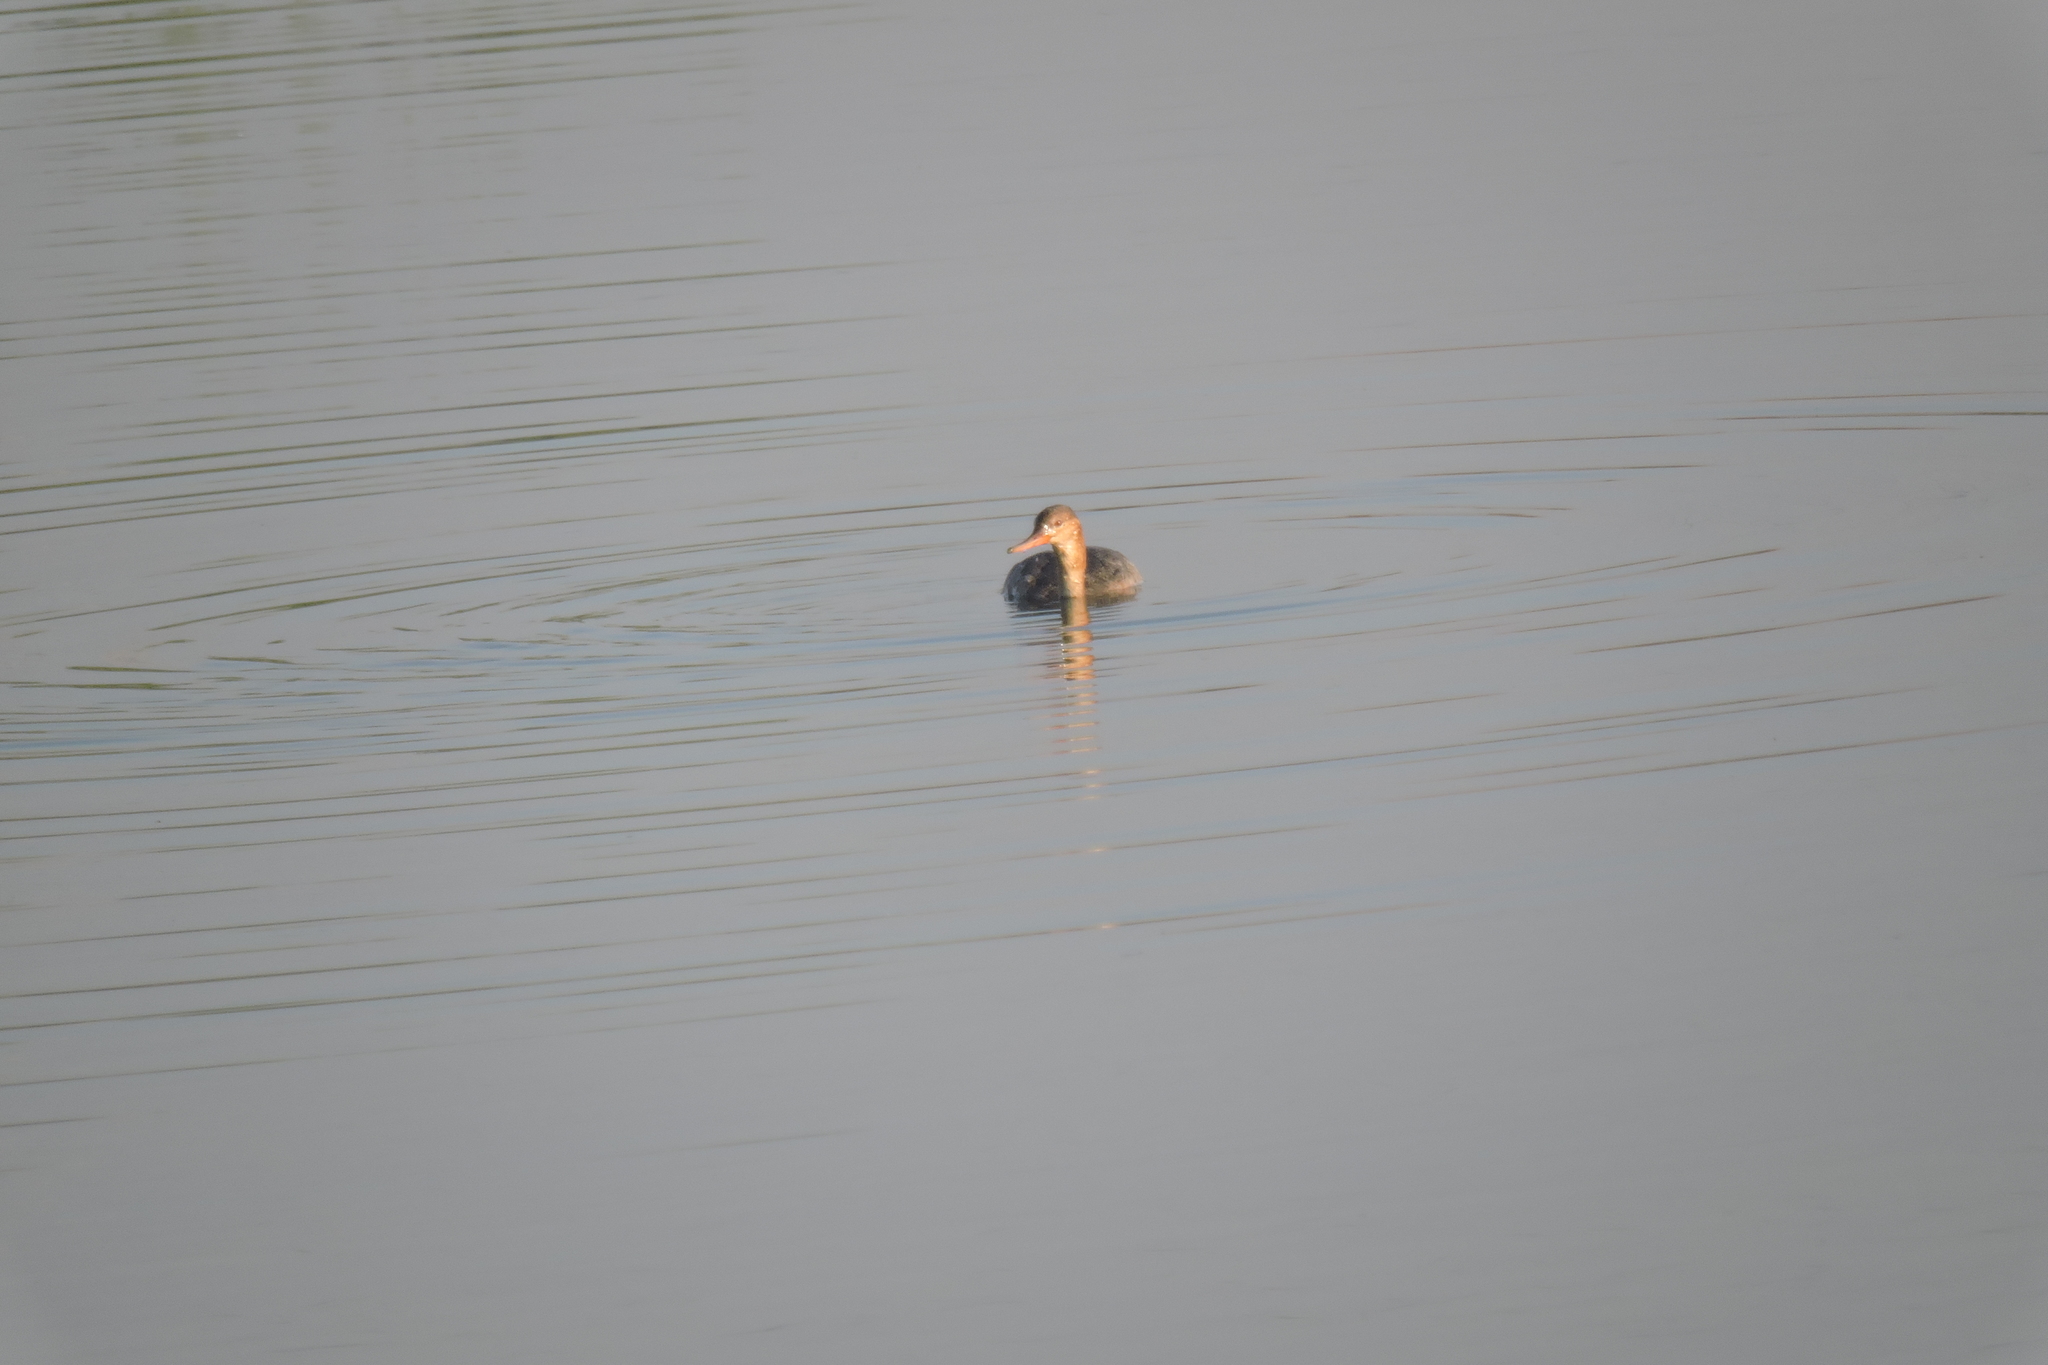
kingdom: Animalia
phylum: Chordata
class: Aves
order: Anseriformes
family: Anatidae
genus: Mergus
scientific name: Mergus serrator
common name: Red-breasted merganser
